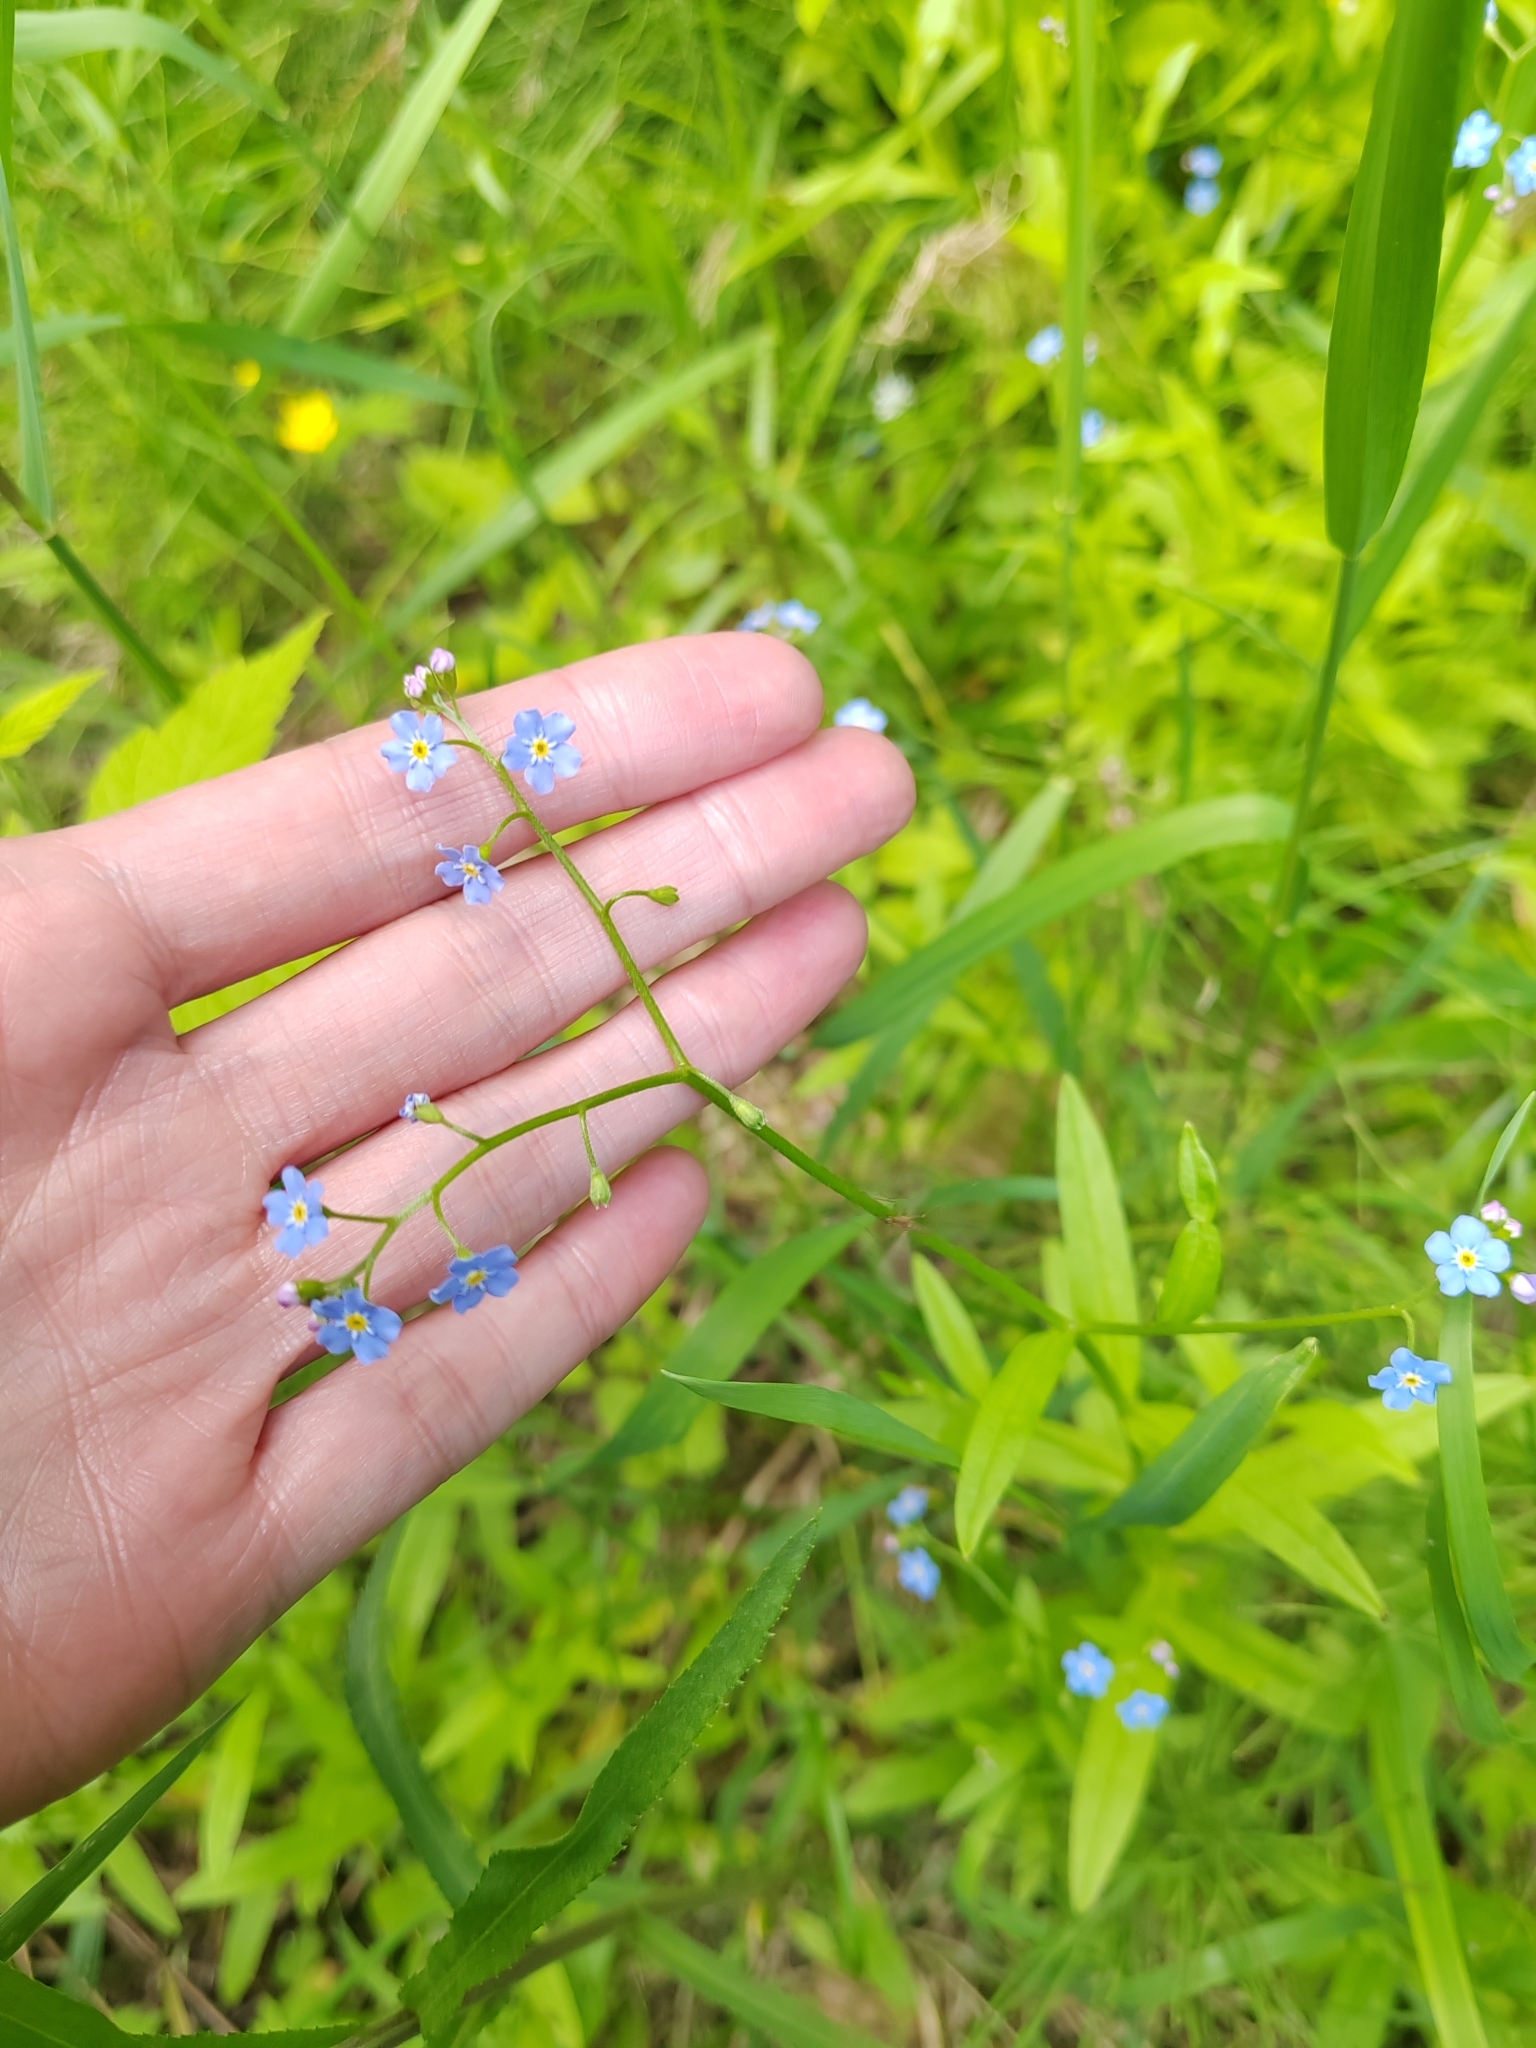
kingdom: Plantae
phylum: Tracheophyta
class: Magnoliopsida
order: Boraginales
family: Boraginaceae
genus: Myosotis
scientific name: Myosotis scorpioides
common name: Water forget-me-not
